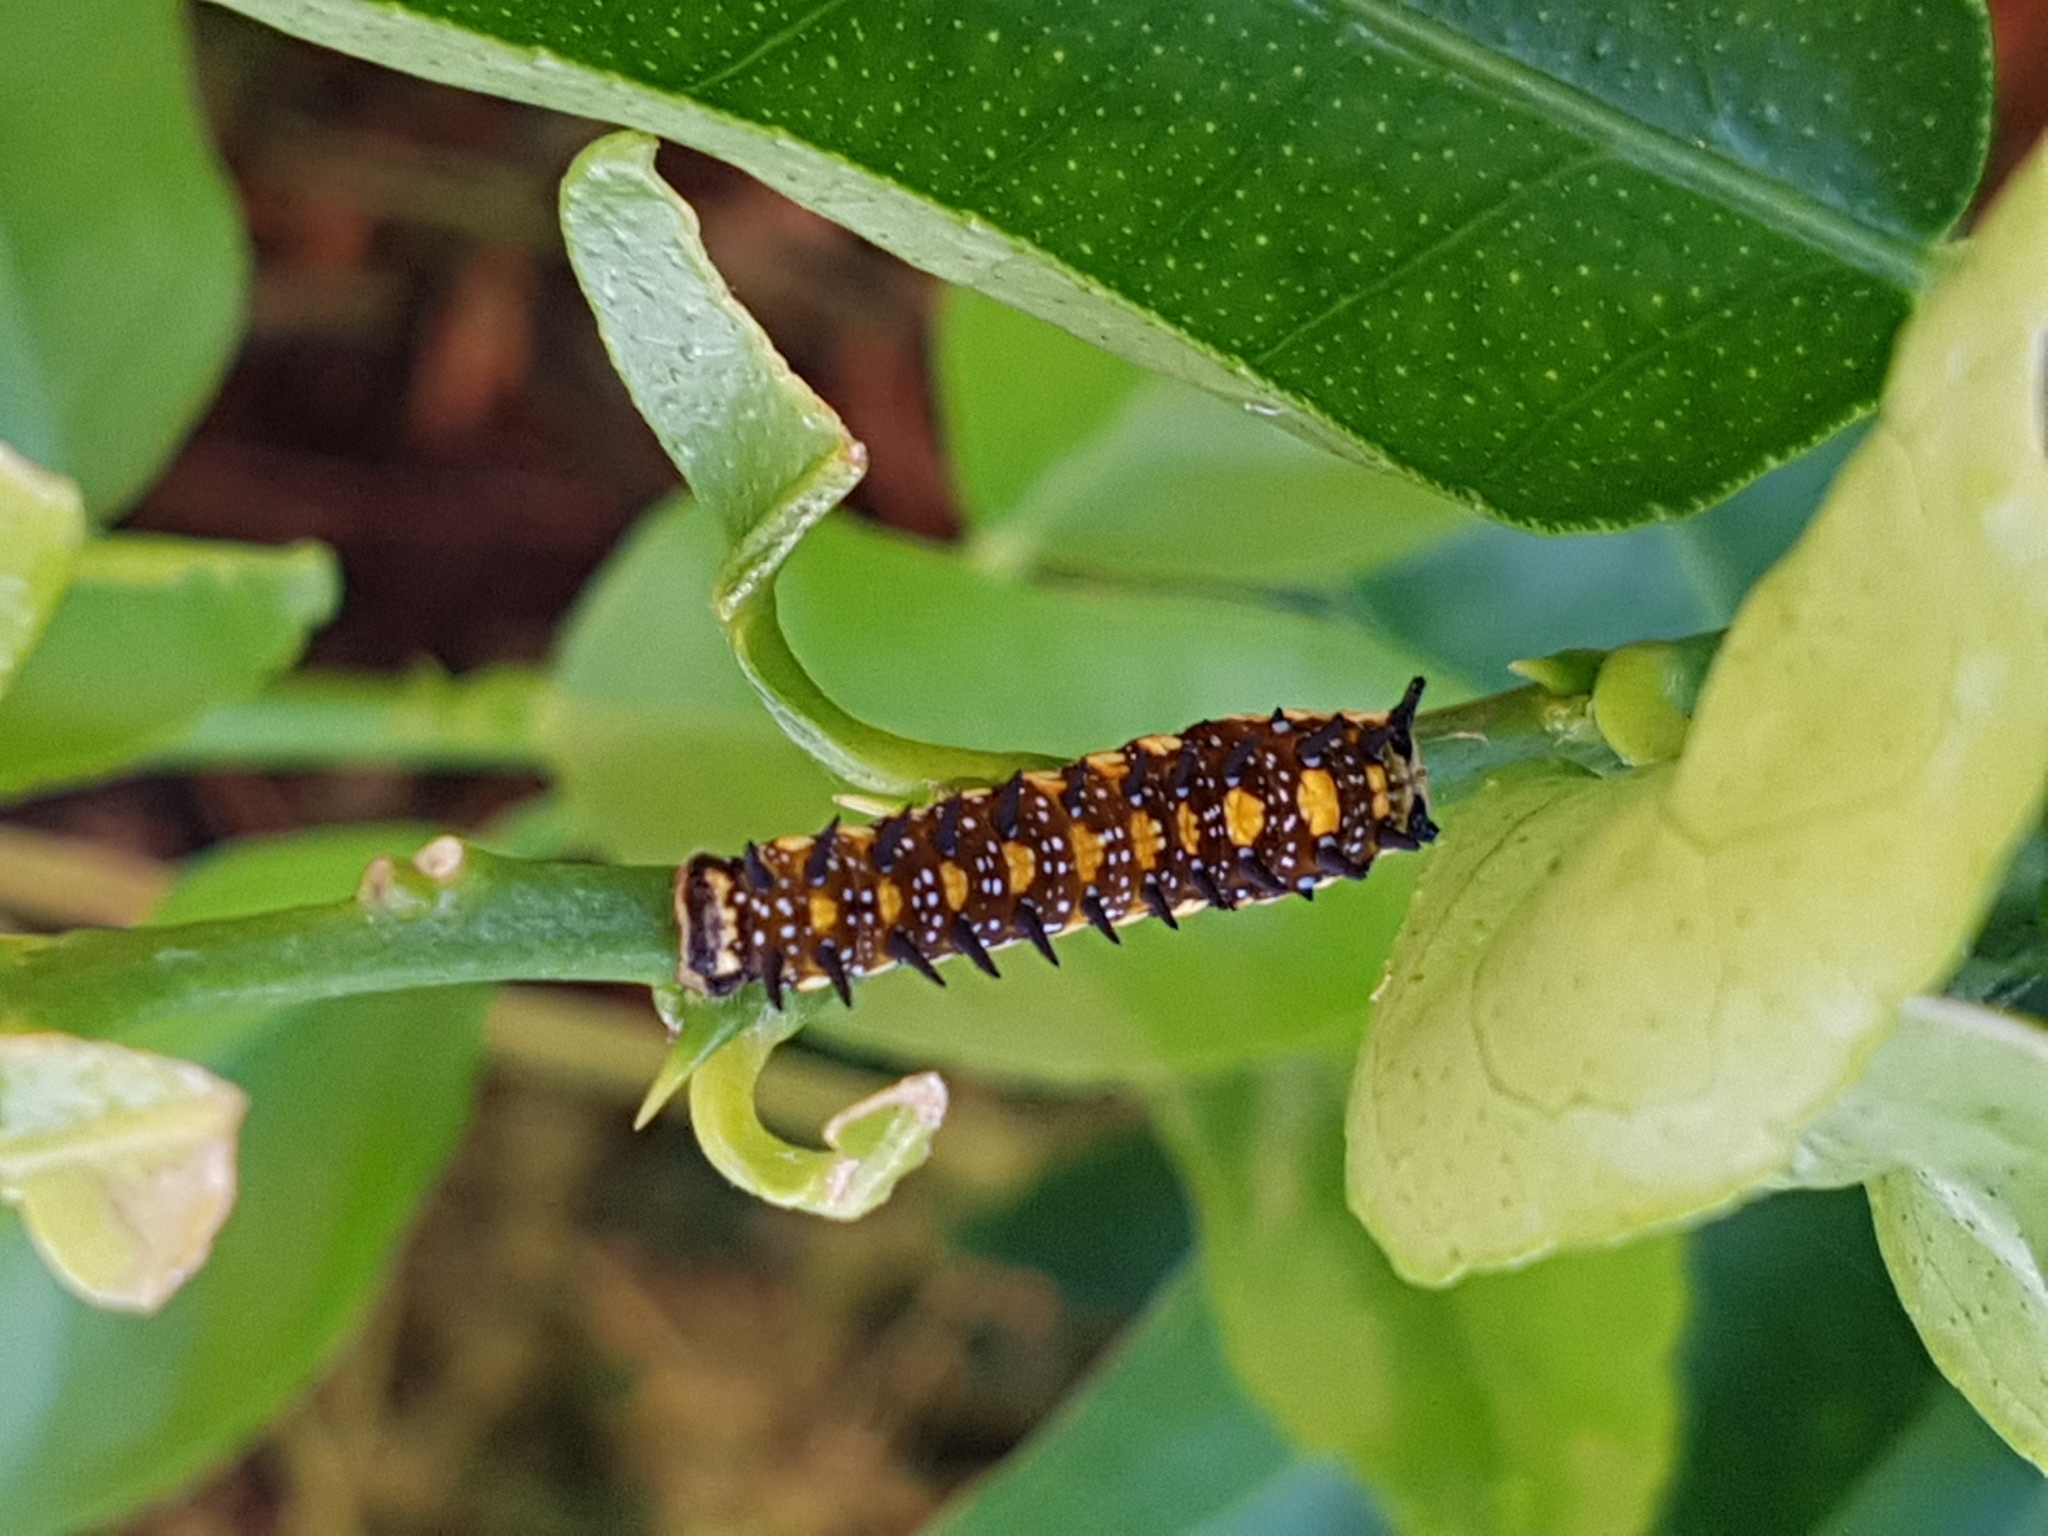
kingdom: Animalia
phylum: Arthropoda
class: Insecta
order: Lepidoptera
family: Papilionidae
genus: Papilio
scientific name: Papilio anactus
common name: Dingy swallowtail
